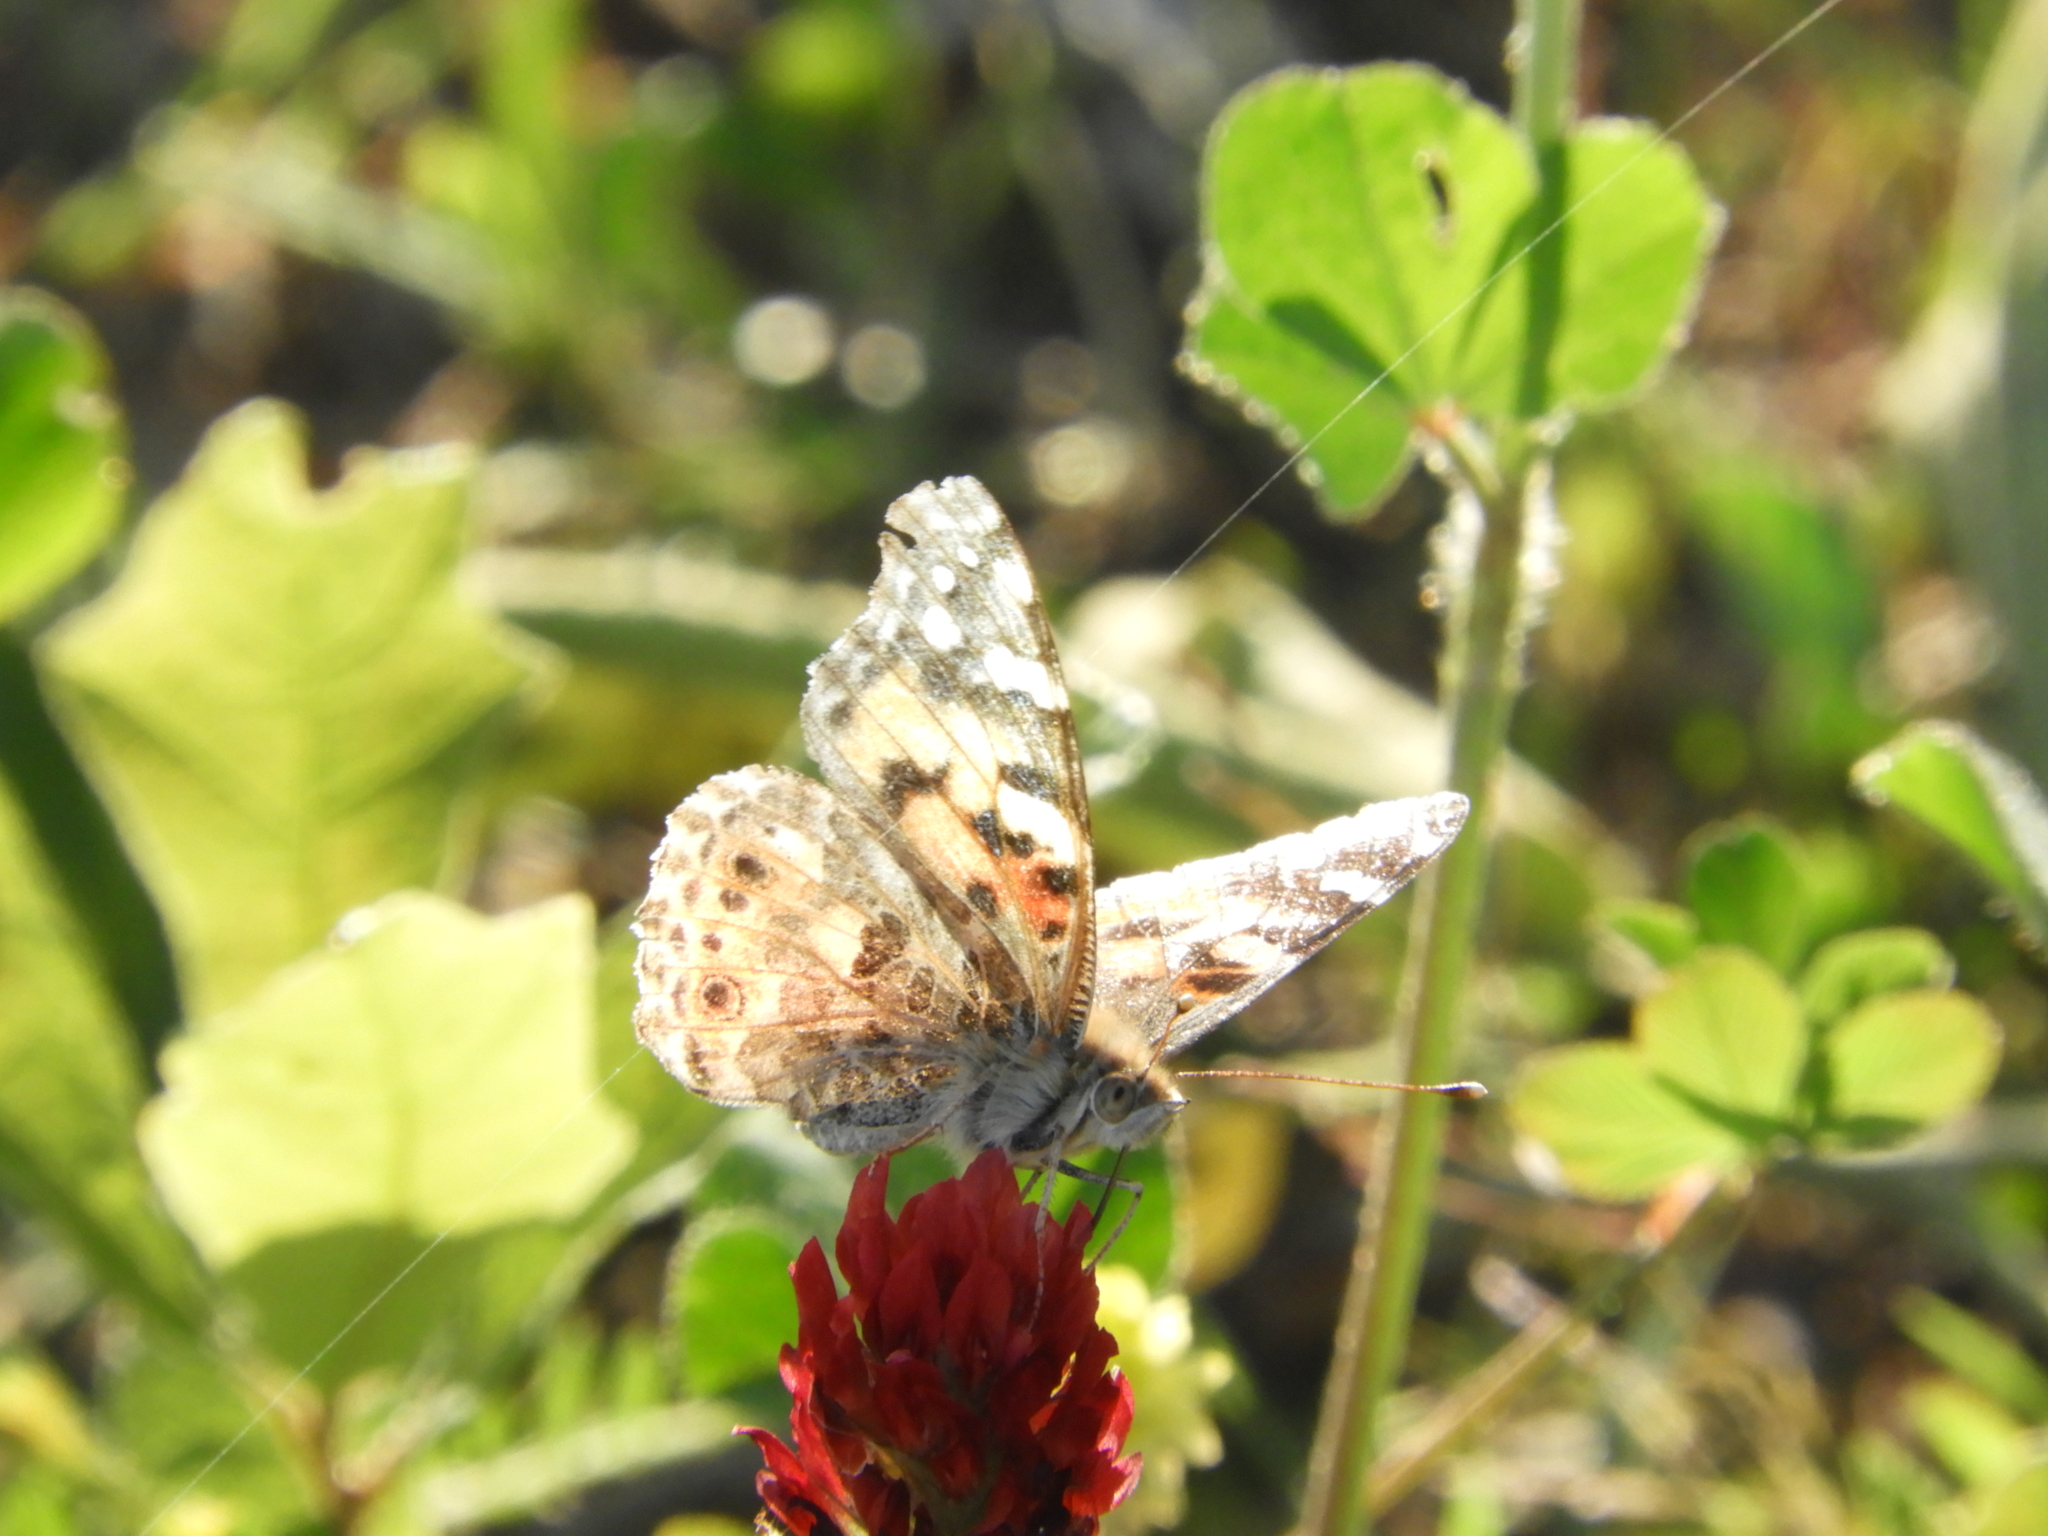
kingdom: Animalia
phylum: Arthropoda
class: Insecta
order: Lepidoptera
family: Nymphalidae
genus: Vanessa
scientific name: Vanessa cardui
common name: Painted lady
